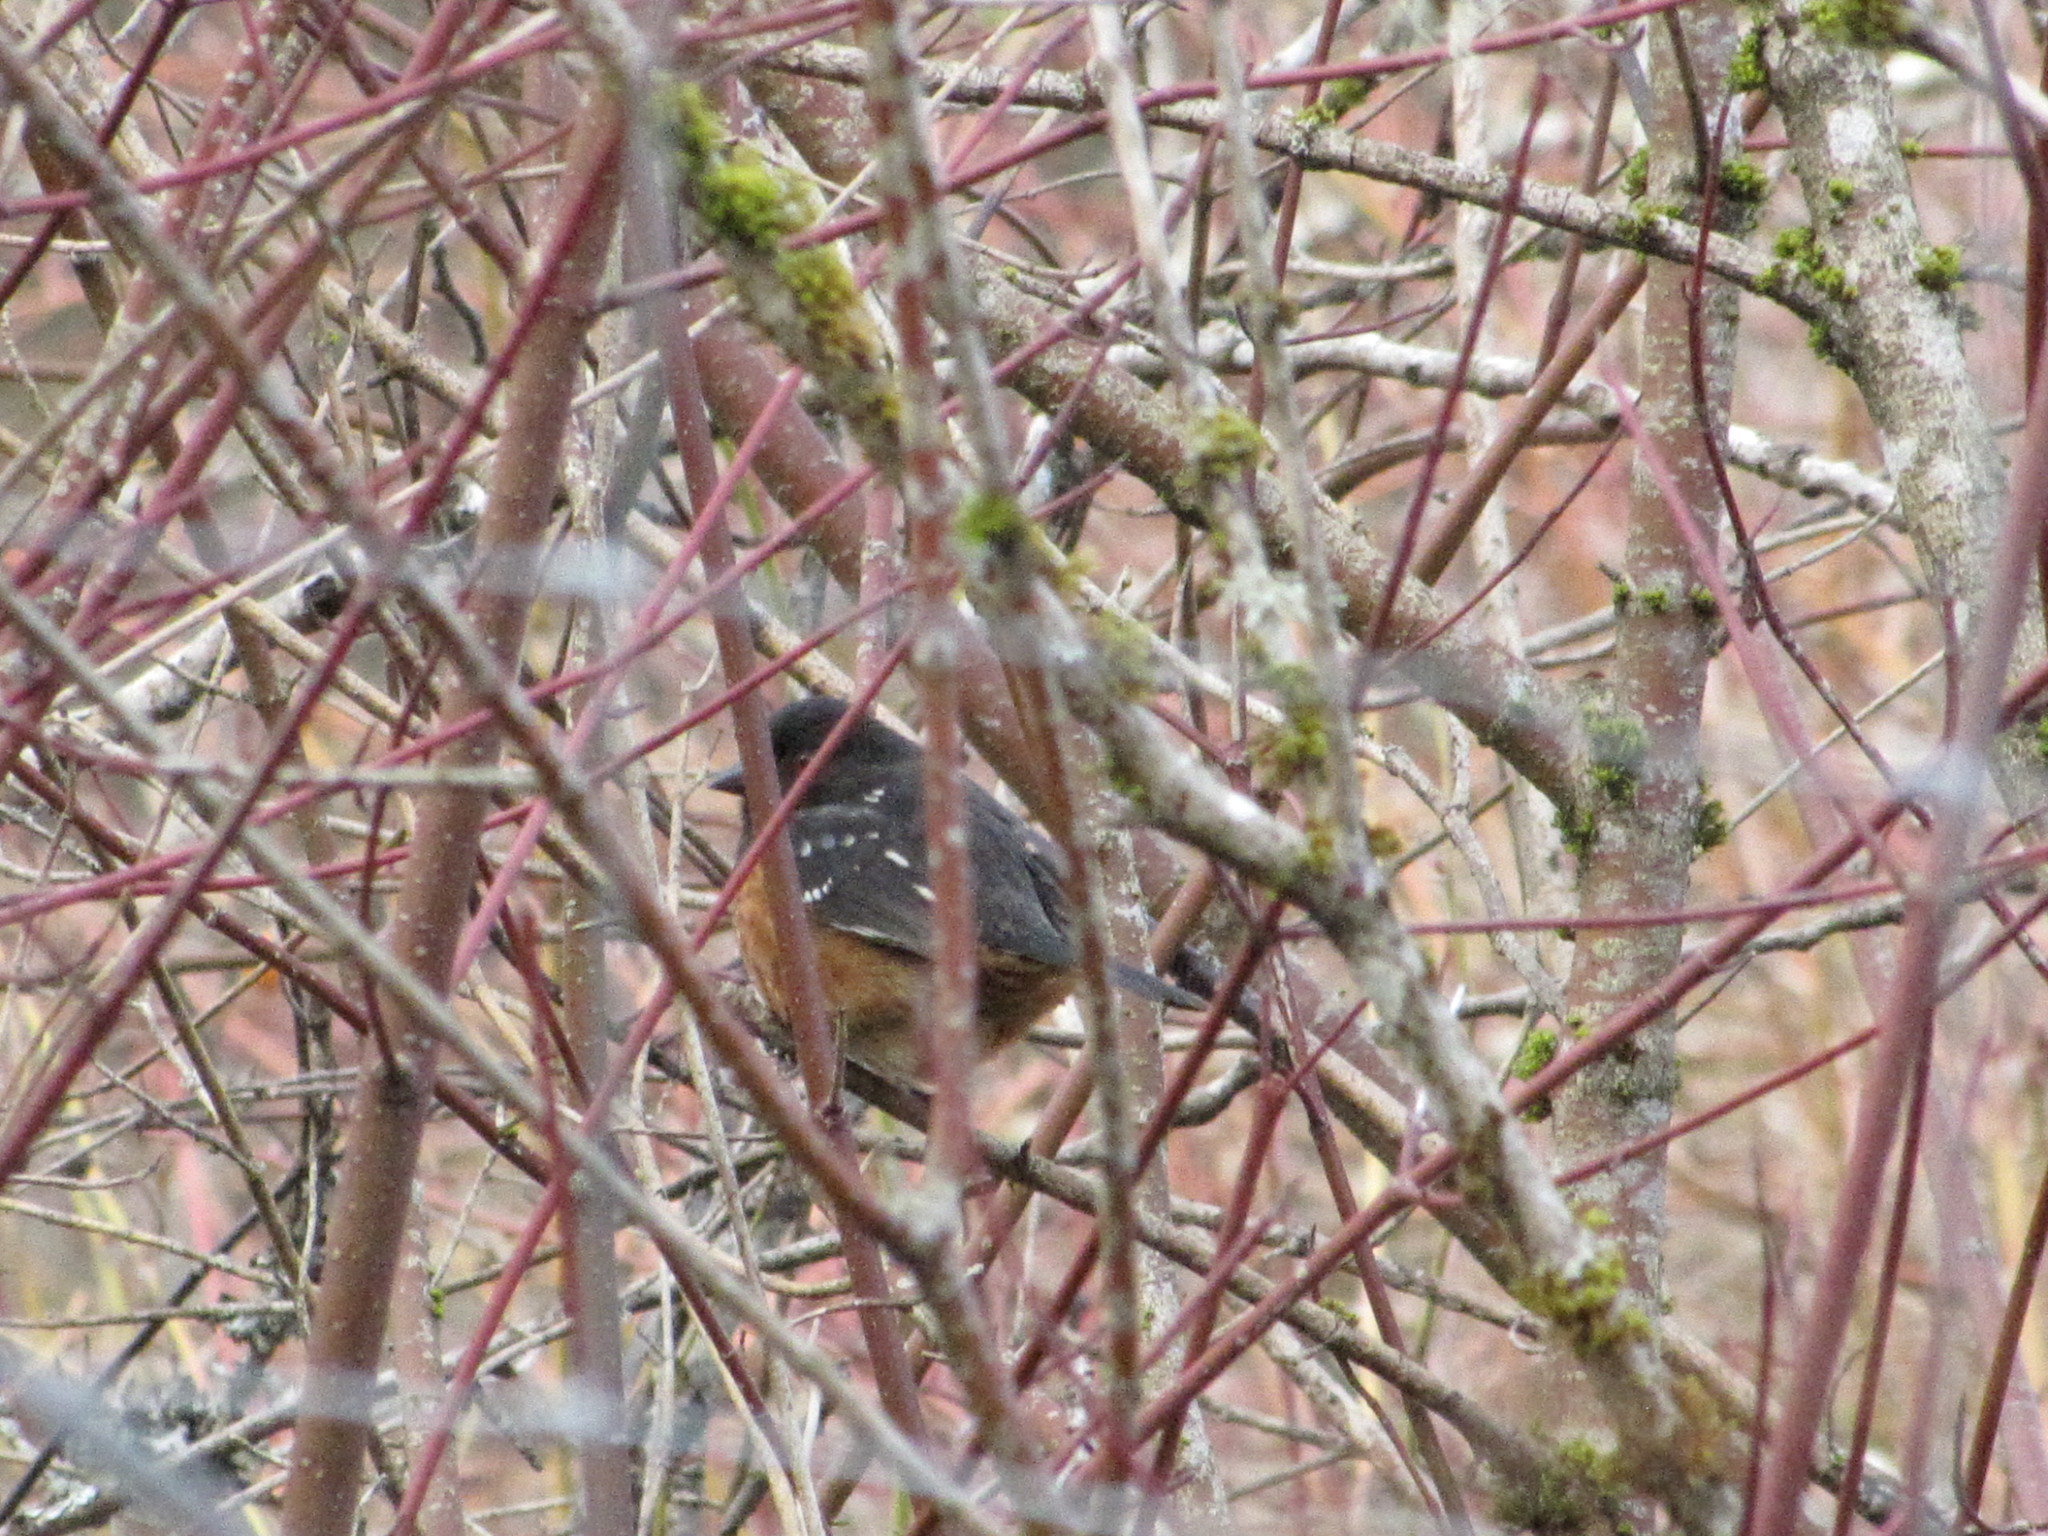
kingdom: Animalia
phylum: Chordata
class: Aves
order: Passeriformes
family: Passerellidae
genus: Pipilo
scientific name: Pipilo maculatus
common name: Spotted towhee
